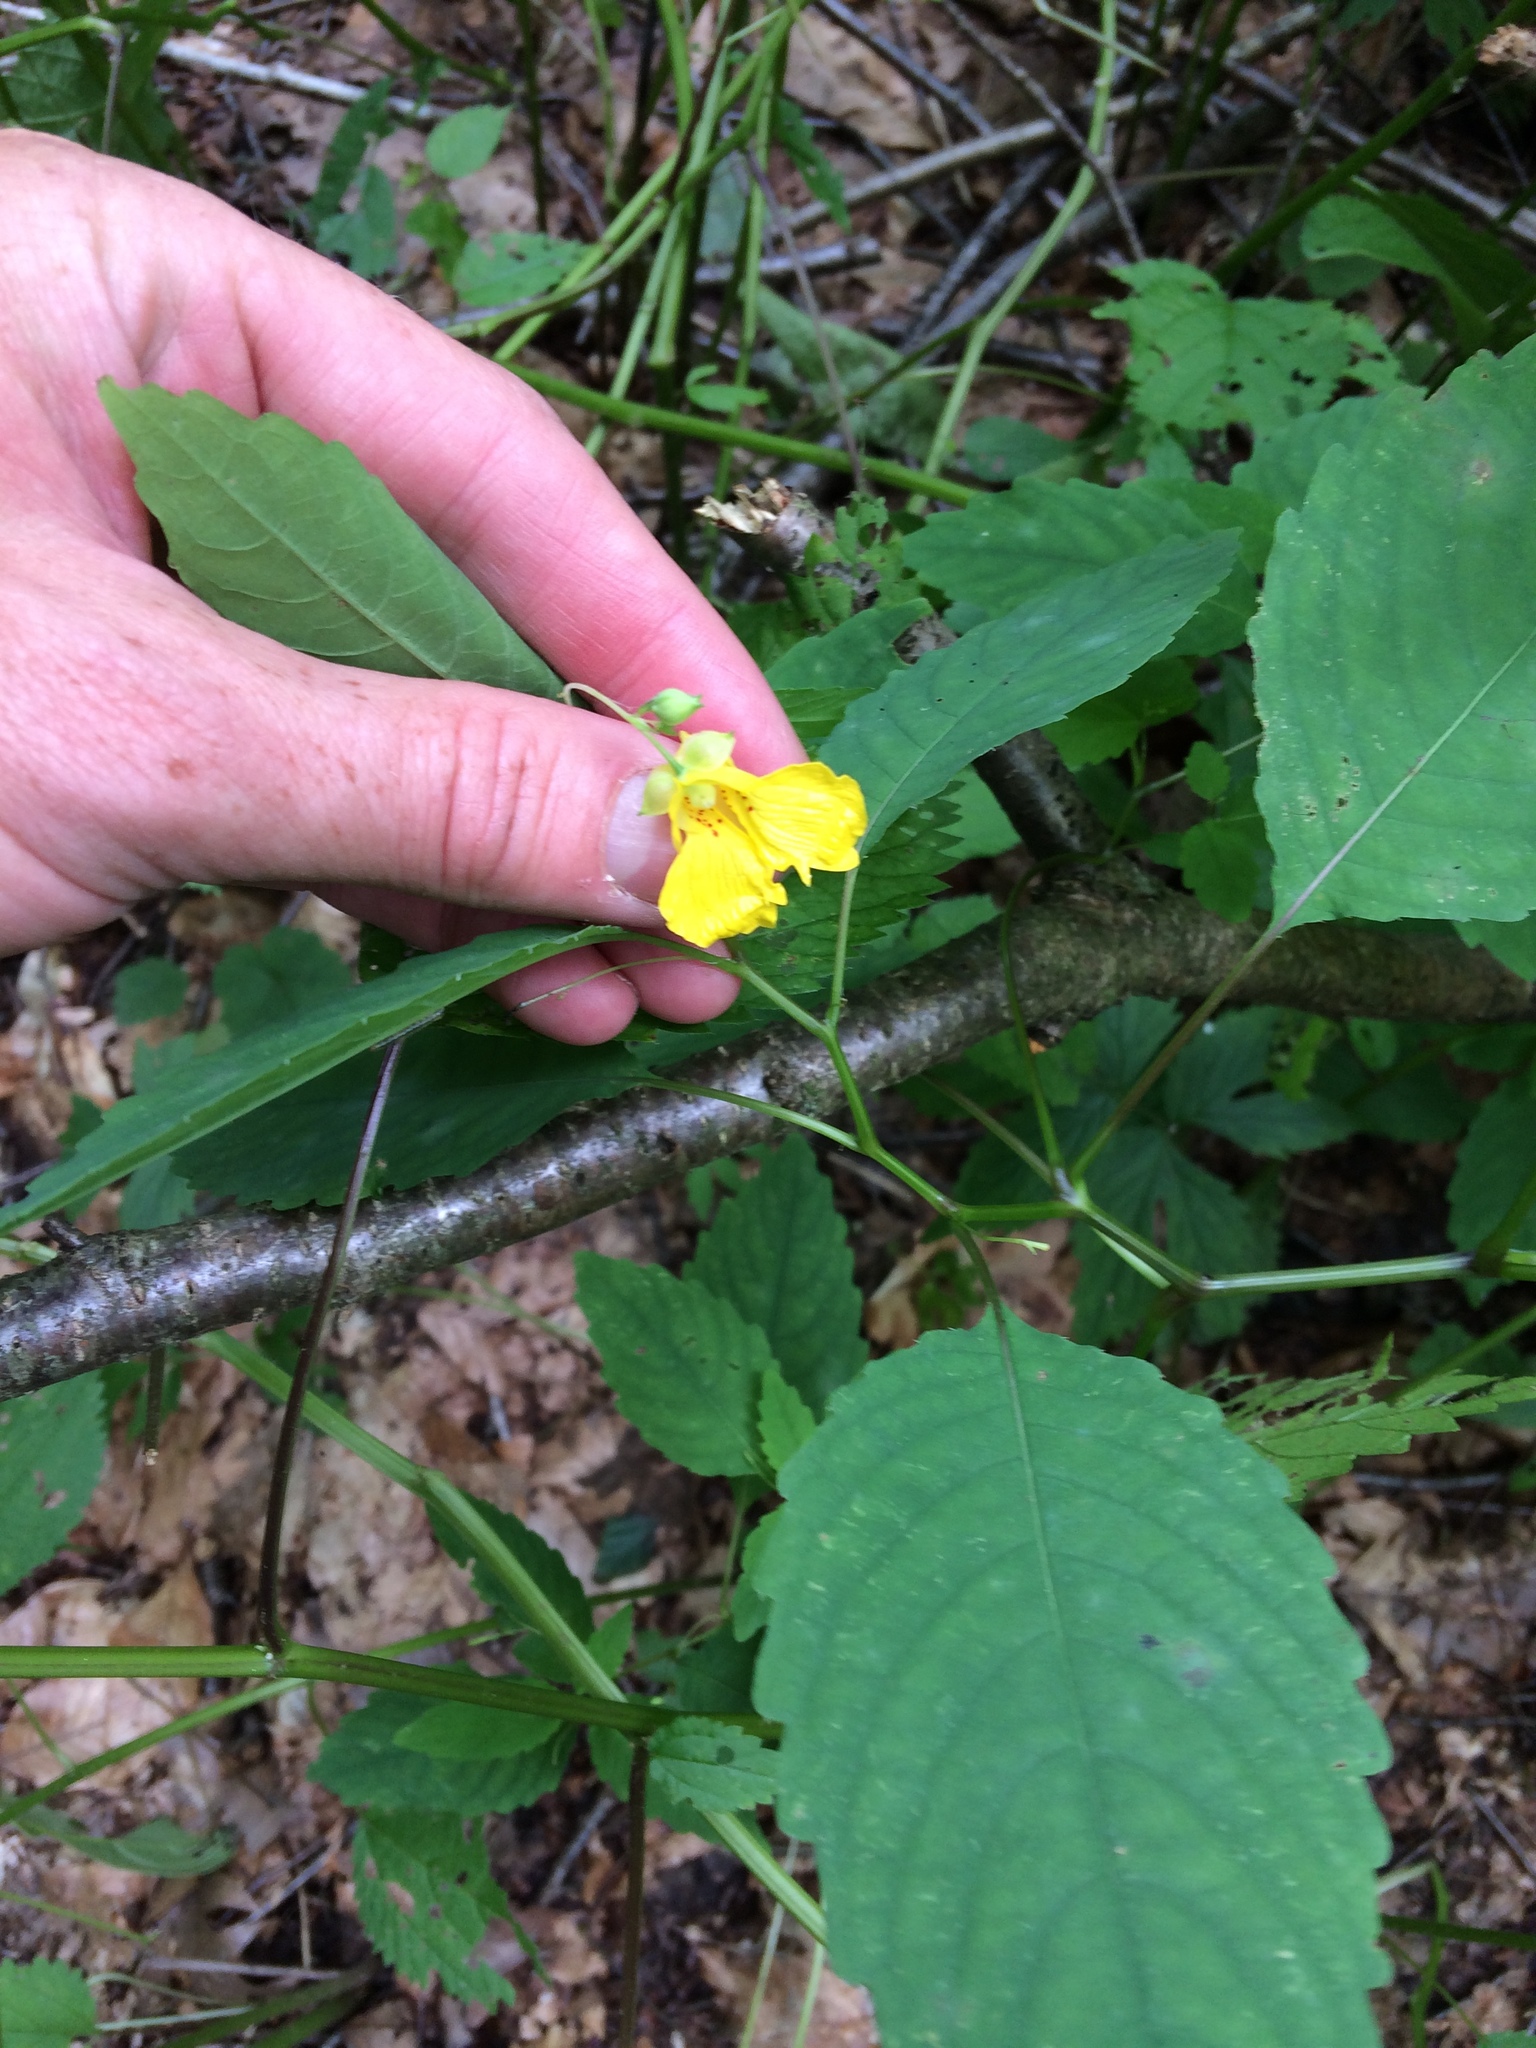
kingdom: Plantae
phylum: Tracheophyta
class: Magnoliopsida
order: Ericales
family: Balsaminaceae
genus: Impatiens
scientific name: Impatiens pallida
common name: Pale snapweed
